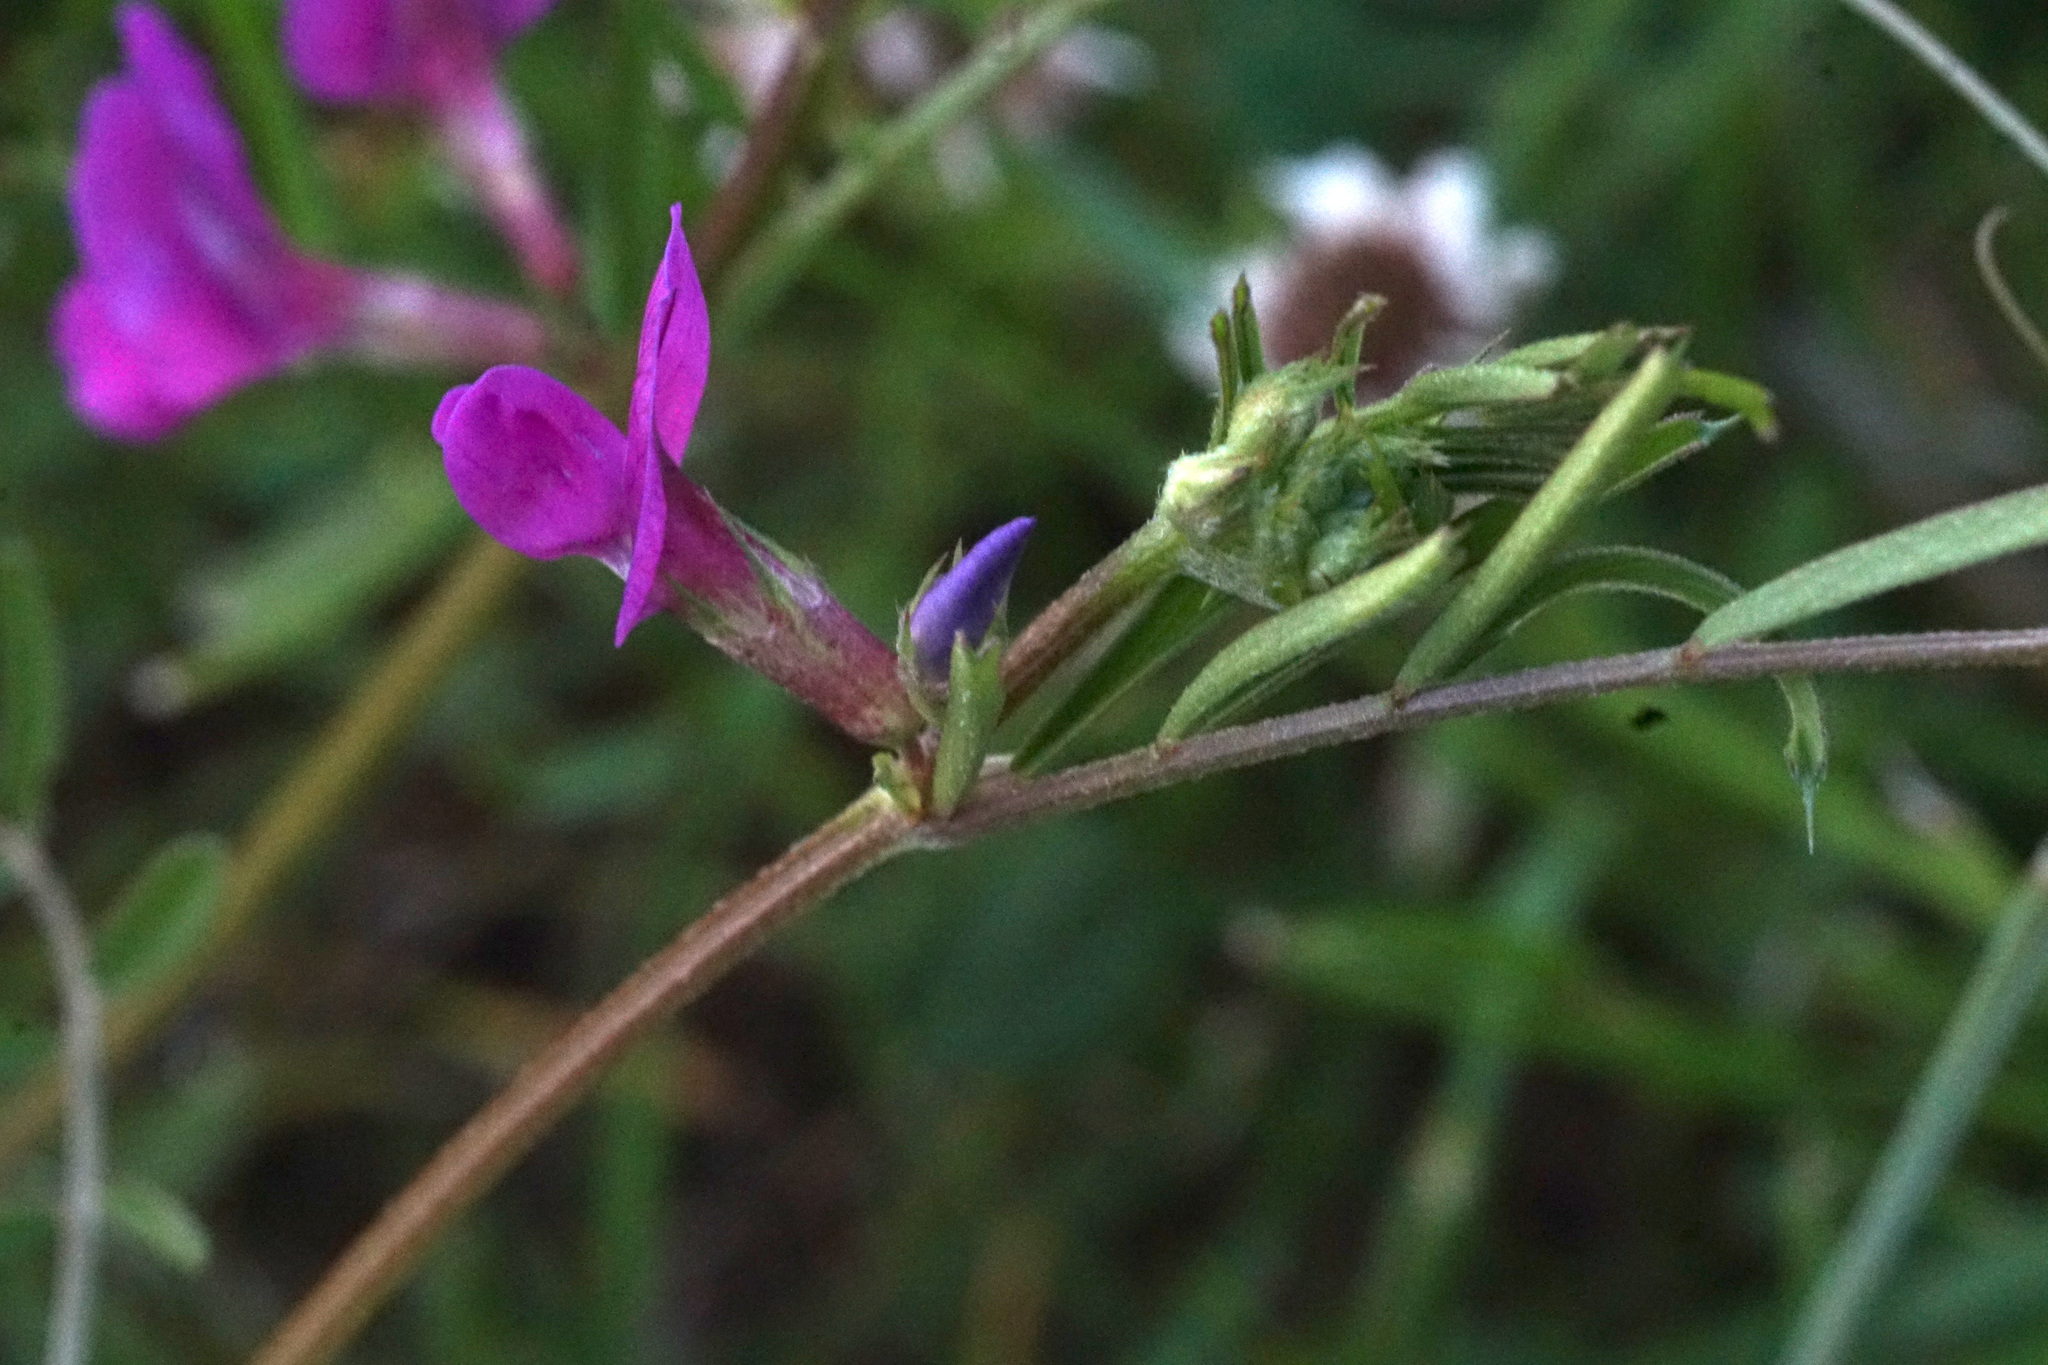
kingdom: Plantae
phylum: Tracheophyta
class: Magnoliopsida
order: Fabales
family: Fabaceae
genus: Vicia
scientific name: Vicia sativa
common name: Garden vetch
